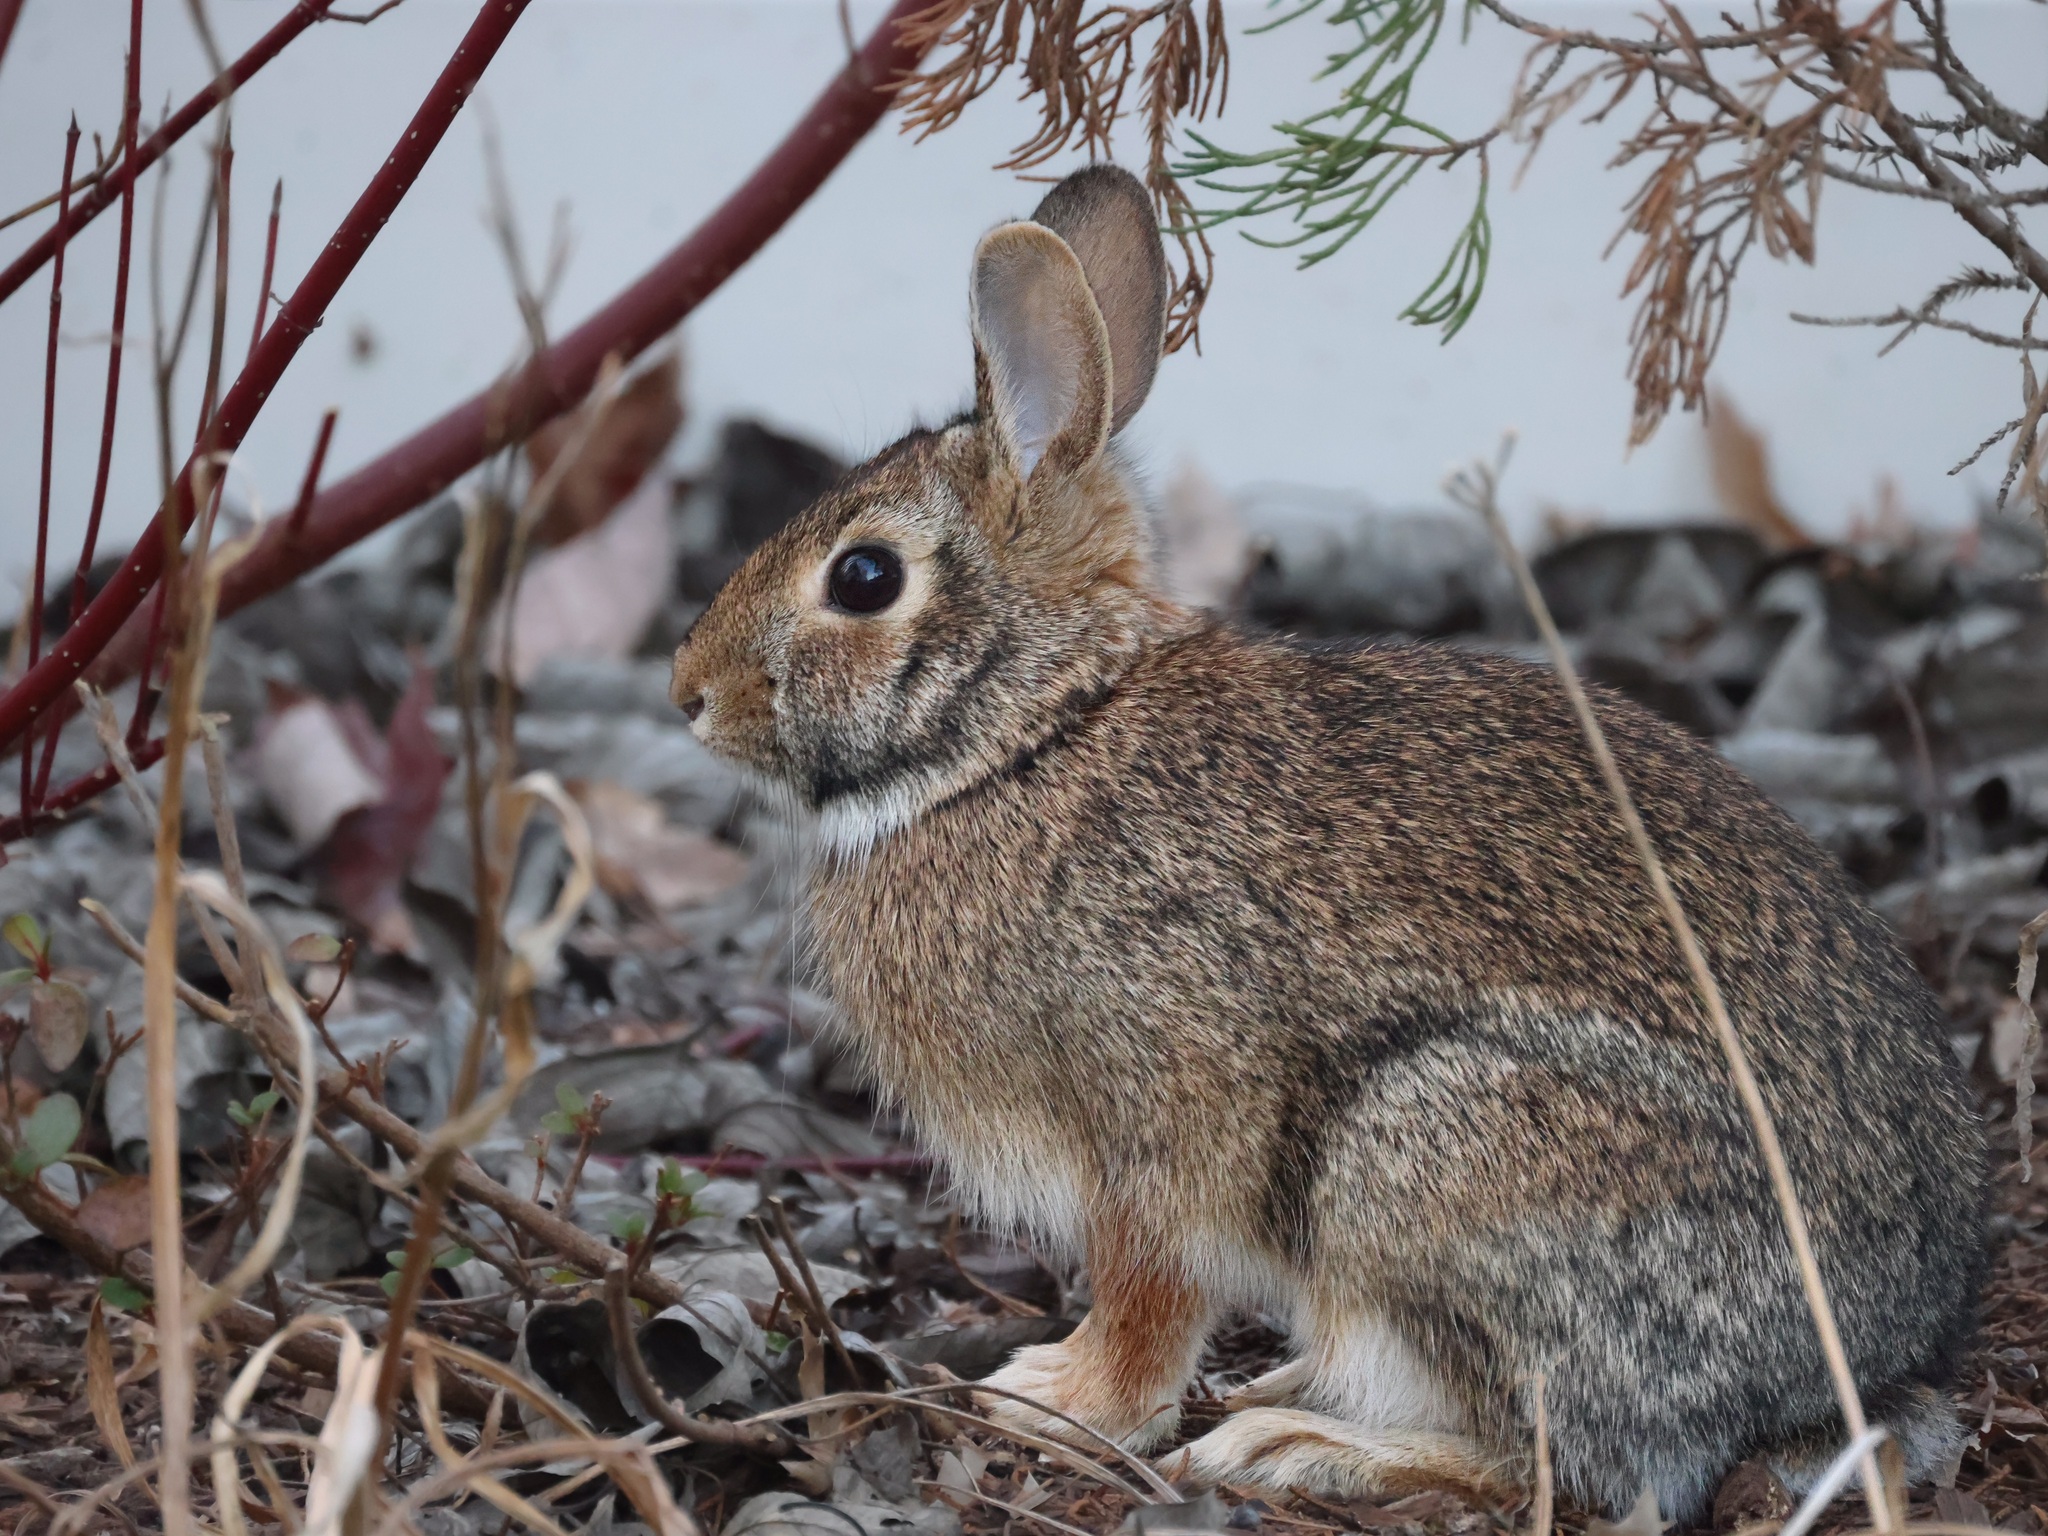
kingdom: Animalia
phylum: Chordata
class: Mammalia
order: Lagomorpha
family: Leporidae
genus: Sylvilagus
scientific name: Sylvilagus floridanus
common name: Eastern cottontail
